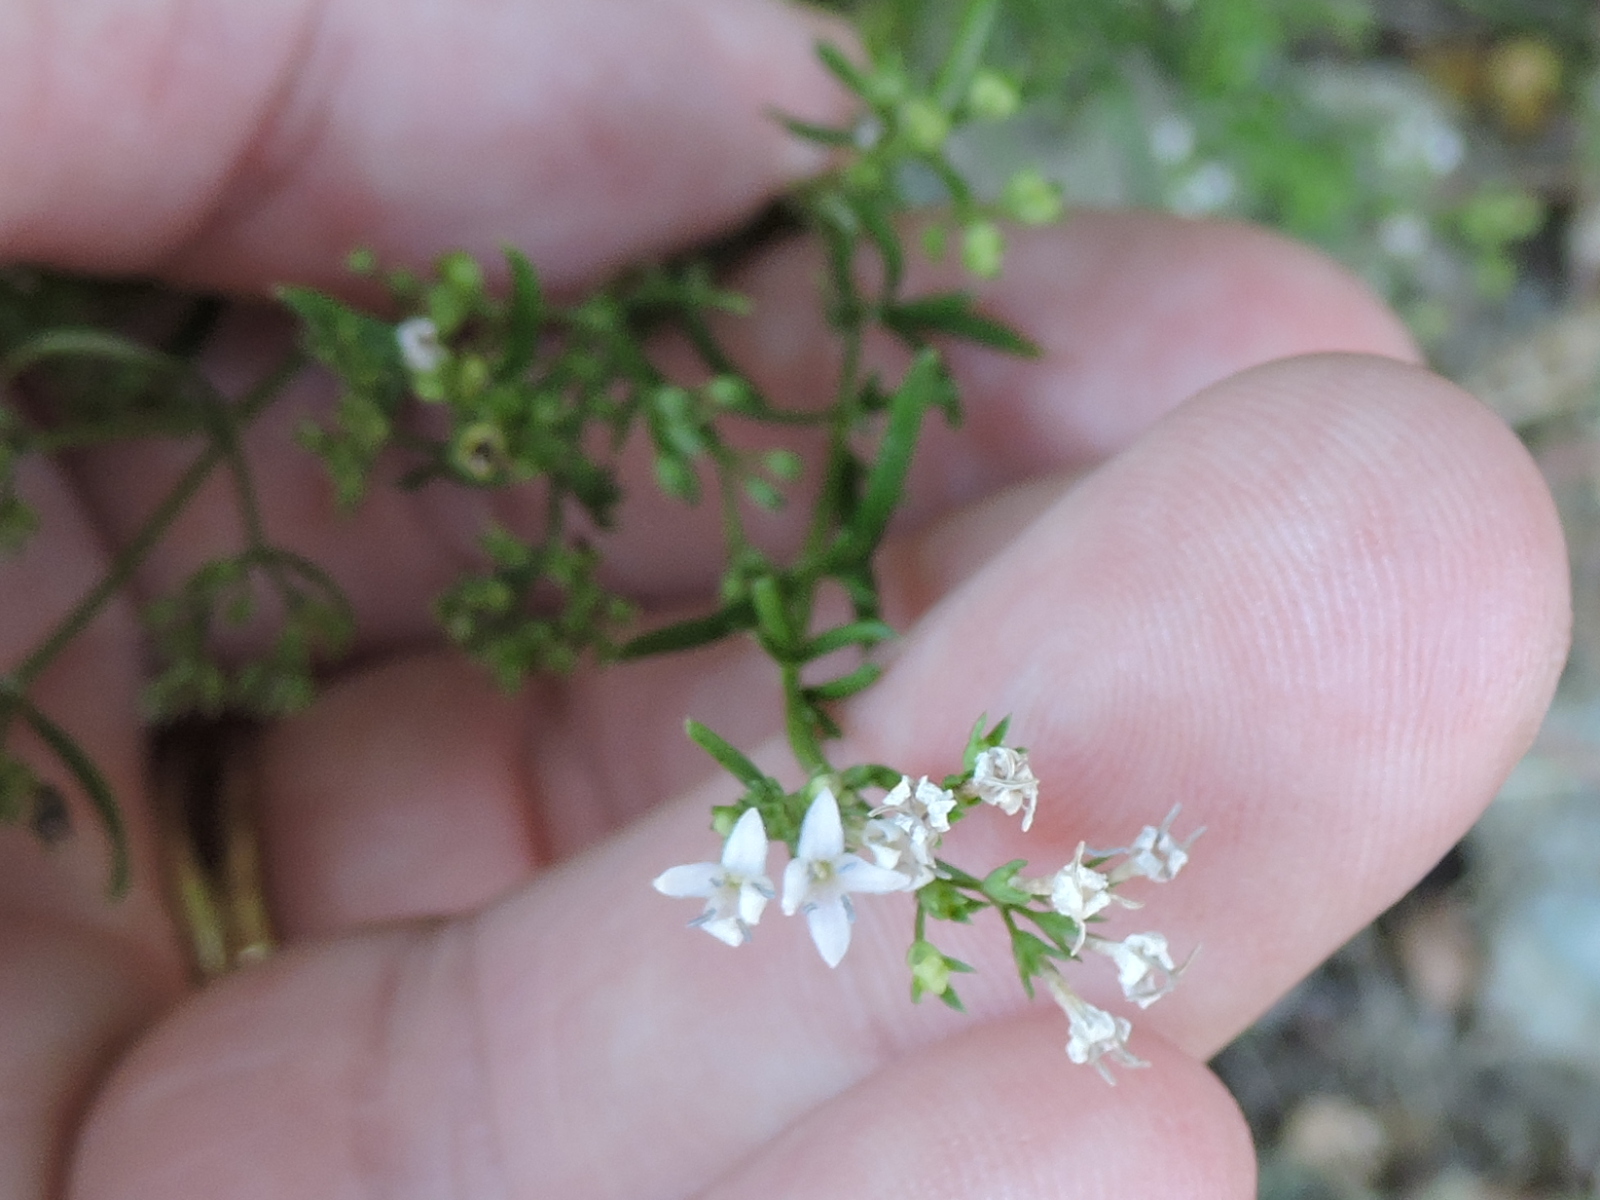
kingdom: Plantae
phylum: Tracheophyta
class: Magnoliopsida
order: Gentianales
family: Rubiaceae
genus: Stenaria
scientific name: Stenaria nigricans
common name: Diamondflowers
